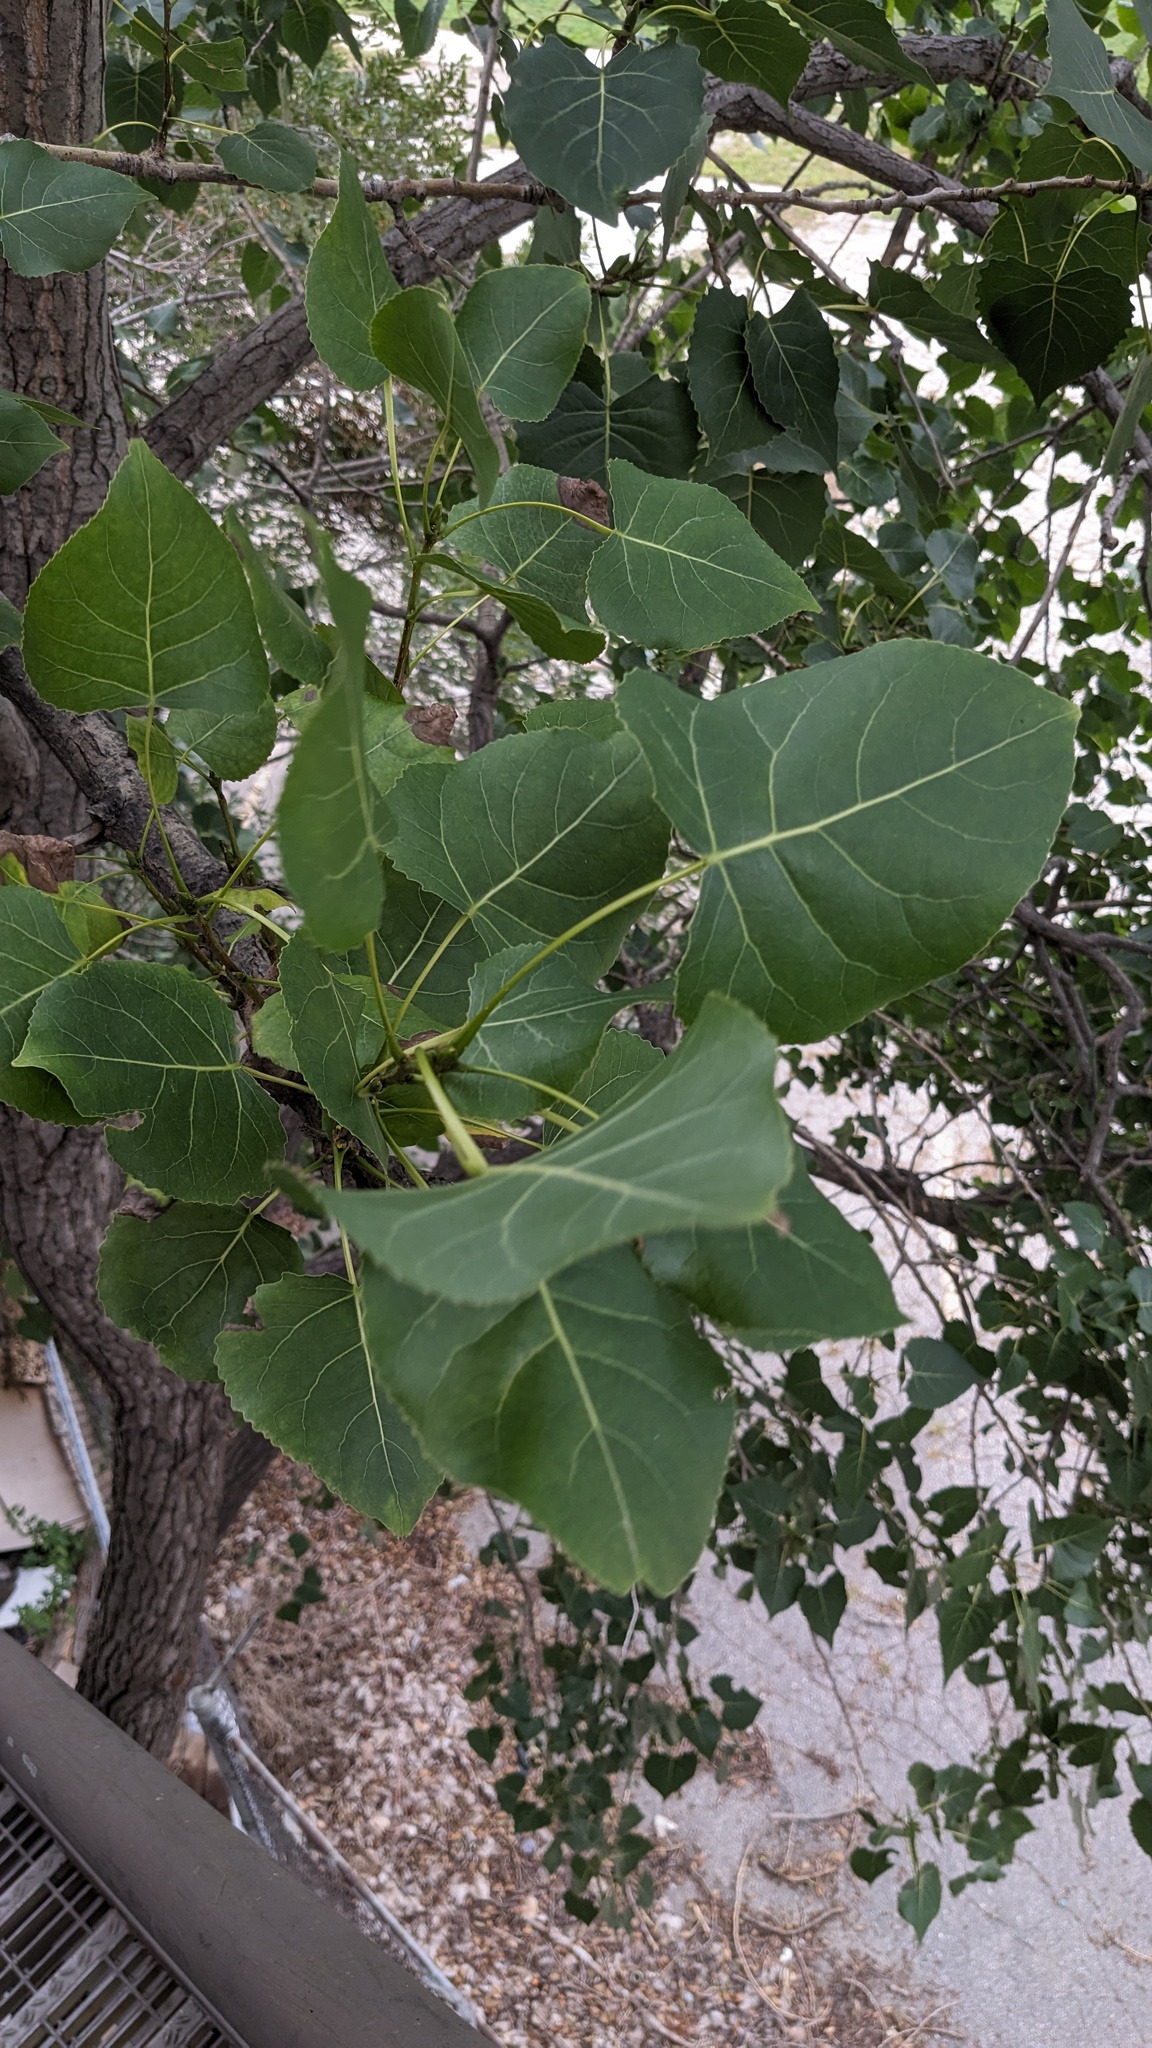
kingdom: Plantae
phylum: Tracheophyta
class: Magnoliopsida
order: Malpighiales
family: Salicaceae
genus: Populus
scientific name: Populus deltoides
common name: Eastern cottonwood
